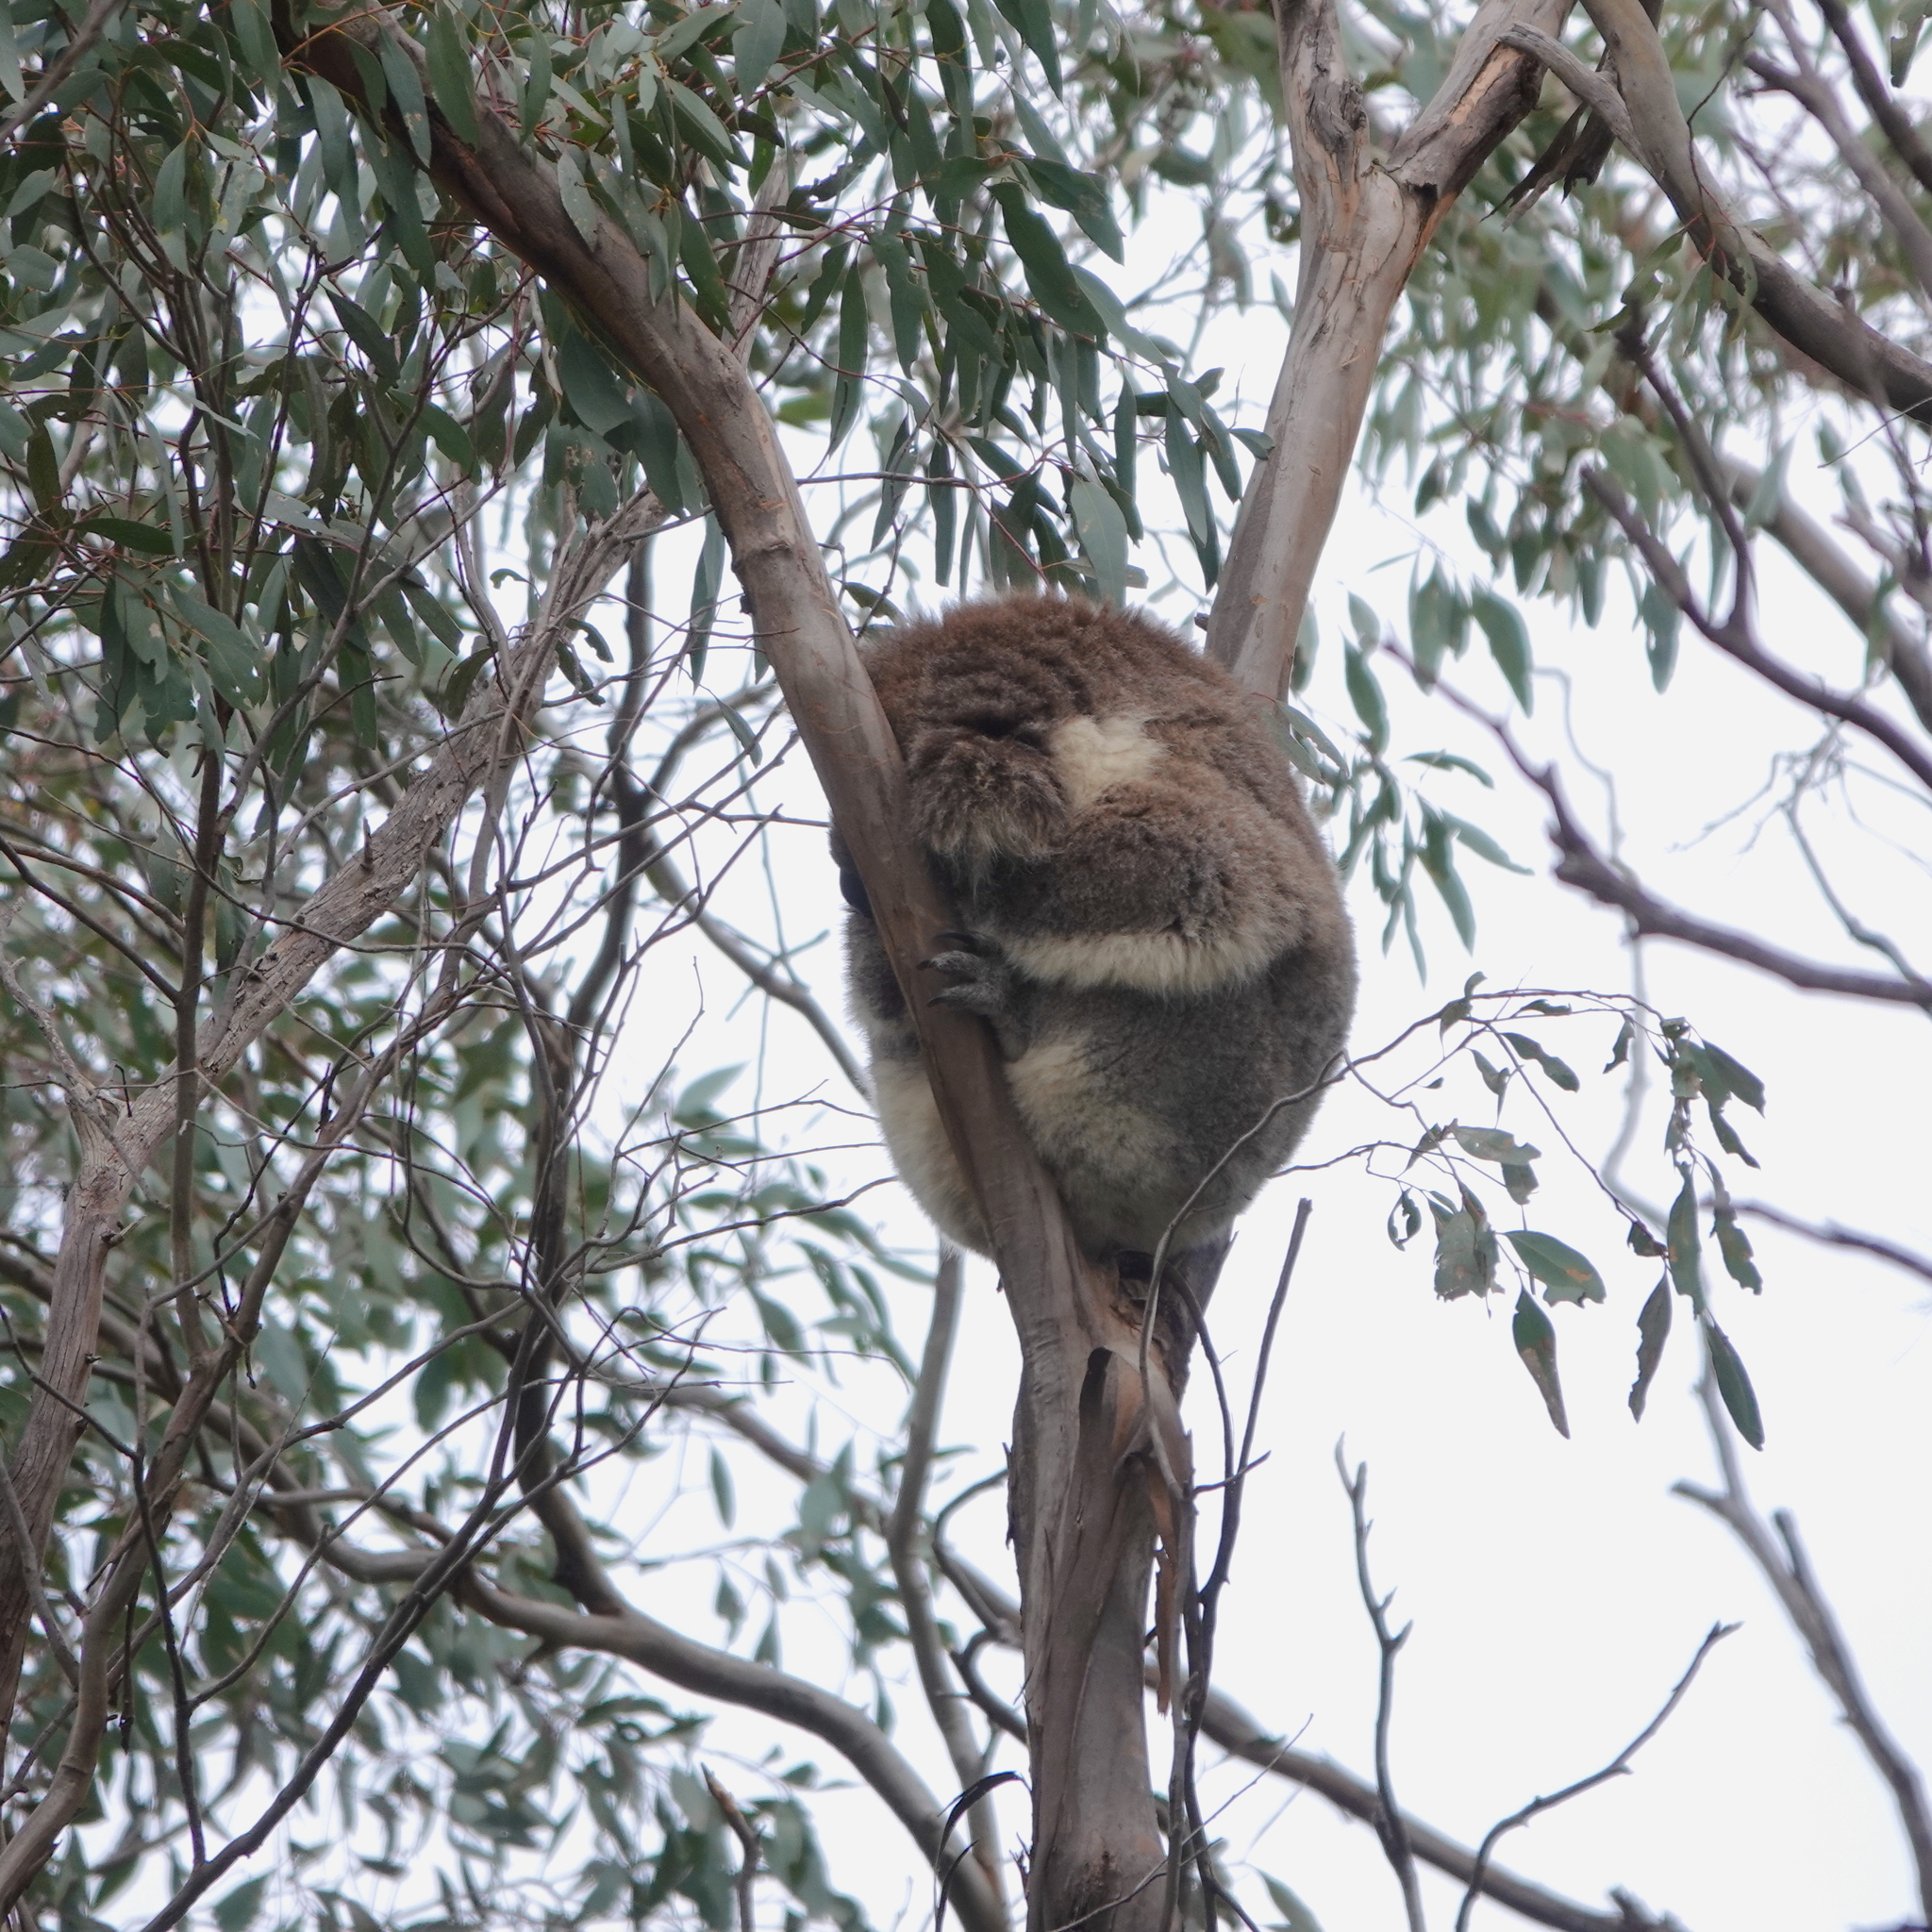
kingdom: Animalia
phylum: Chordata
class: Mammalia
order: Diprotodontia
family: Phascolarctidae
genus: Phascolarctos
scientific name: Phascolarctos cinereus
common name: Koala
